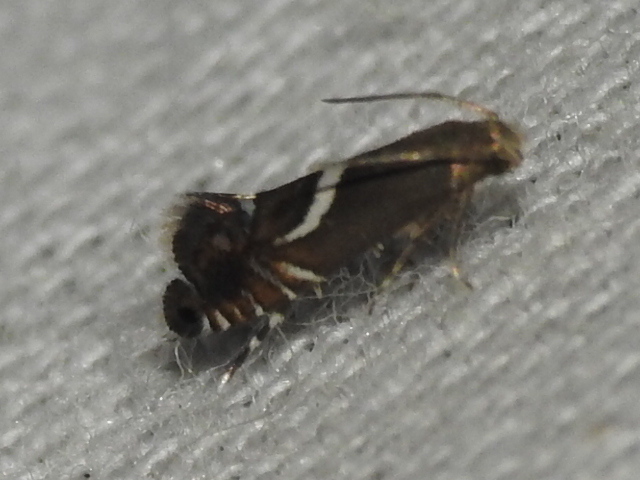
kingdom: Animalia
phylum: Arthropoda
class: Insecta
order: Lepidoptera
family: Glyphipterigidae
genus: Glyphipterix
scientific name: Glyphipterix Diploschizia impigritella
